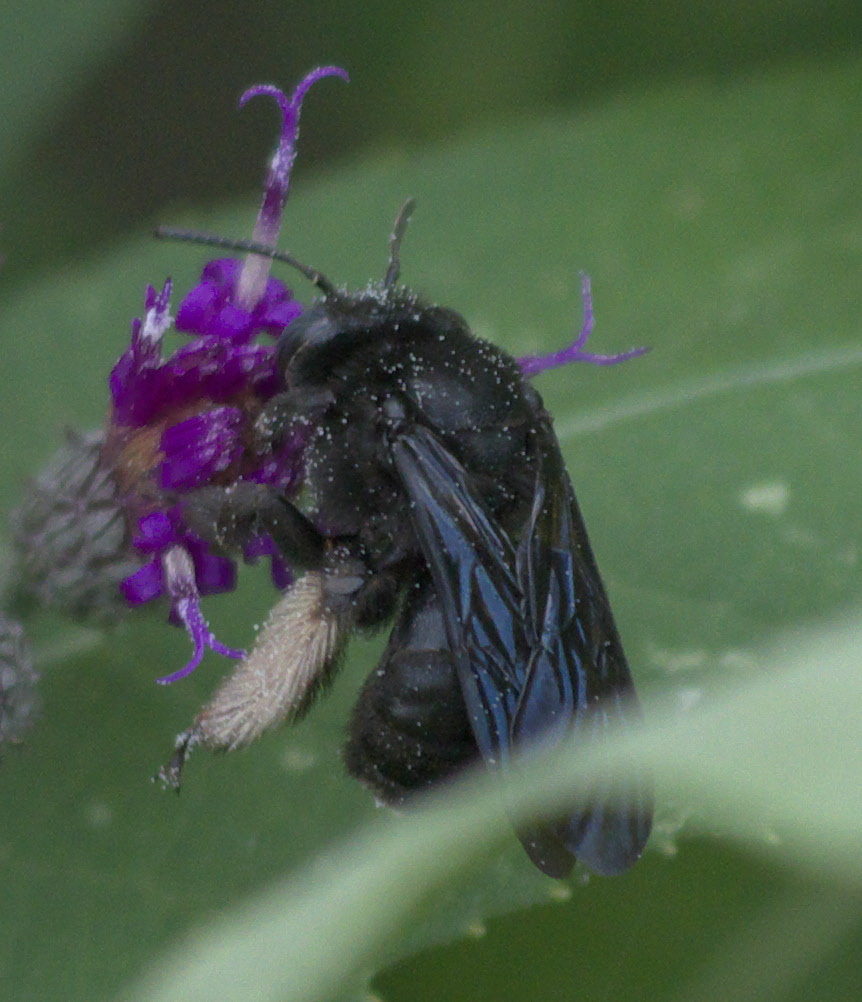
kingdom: Animalia
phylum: Arthropoda
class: Insecta
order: Hymenoptera
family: Apidae
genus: Melissodes
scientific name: Melissodes bimaculatus
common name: Two-spotted long-horned bee
